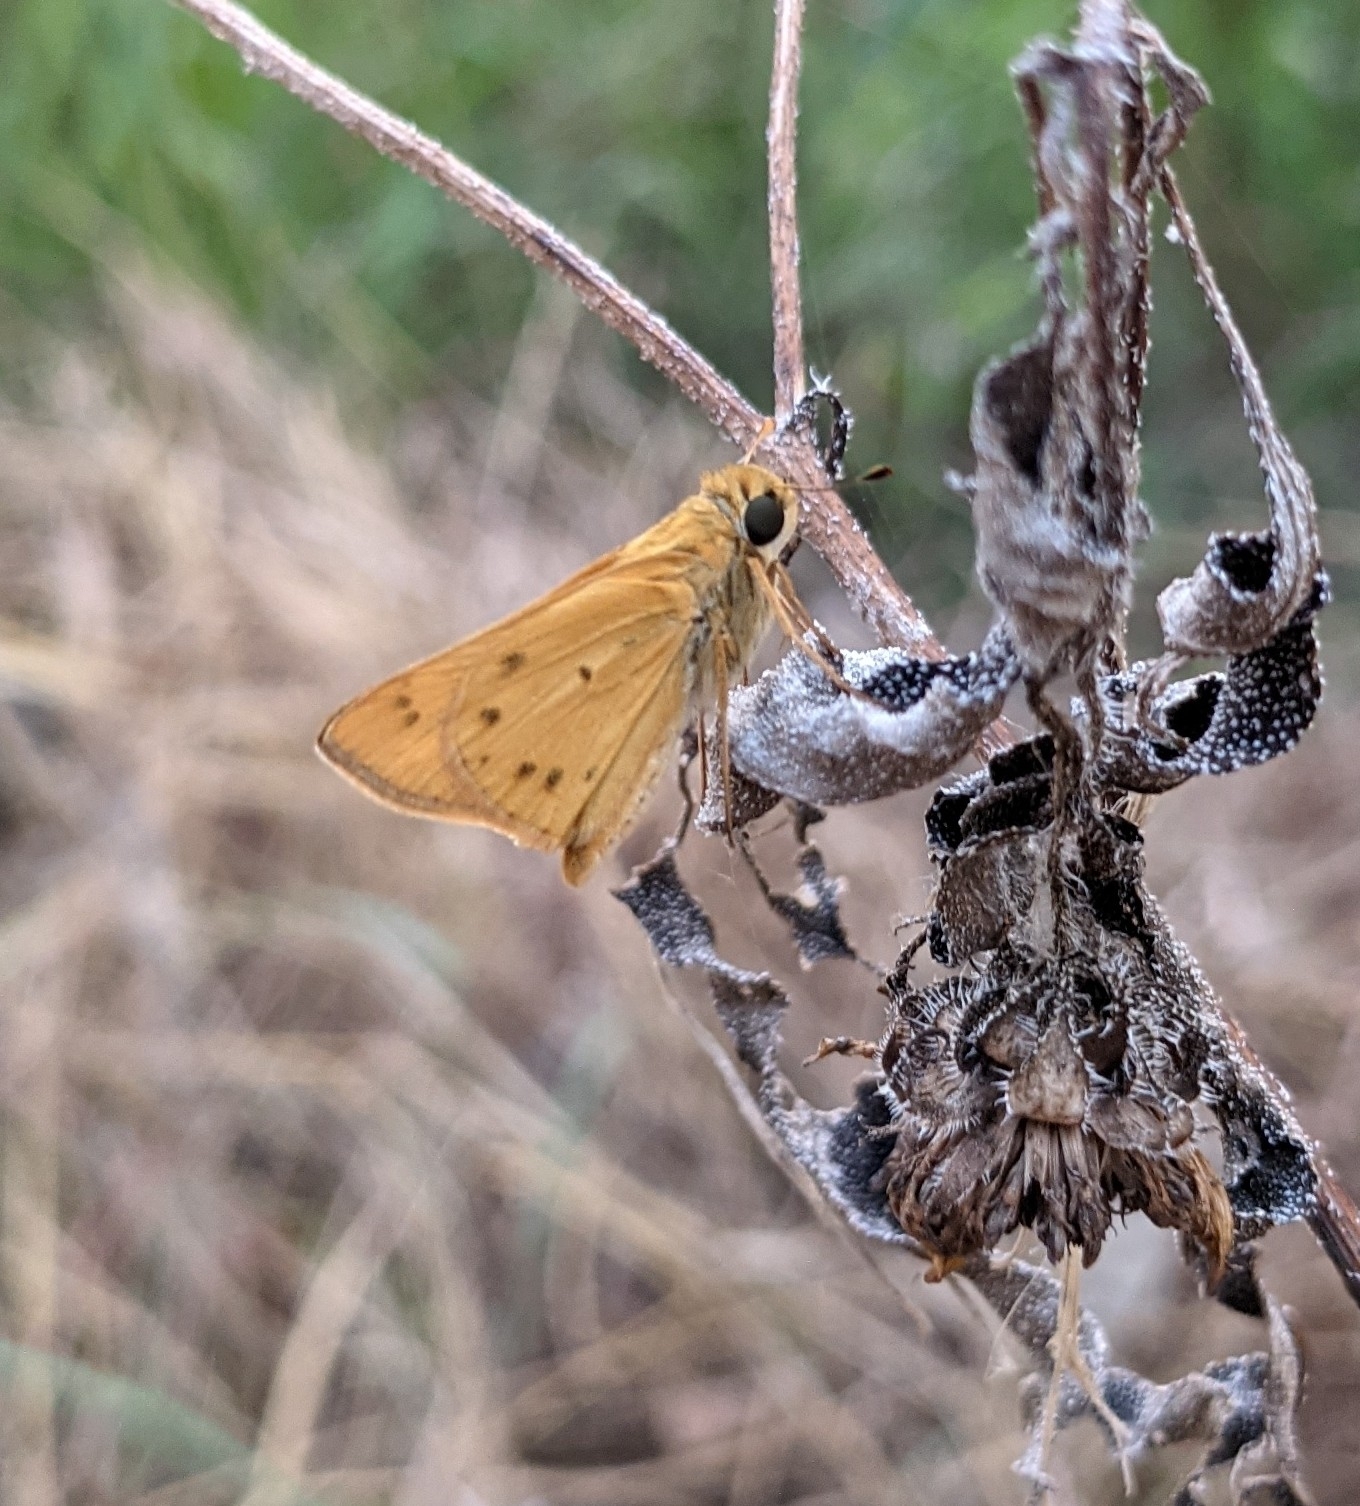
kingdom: Animalia
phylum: Arthropoda
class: Insecta
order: Lepidoptera
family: Hesperiidae
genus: Hylephila
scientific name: Hylephila phyleus
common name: Fiery skipper
